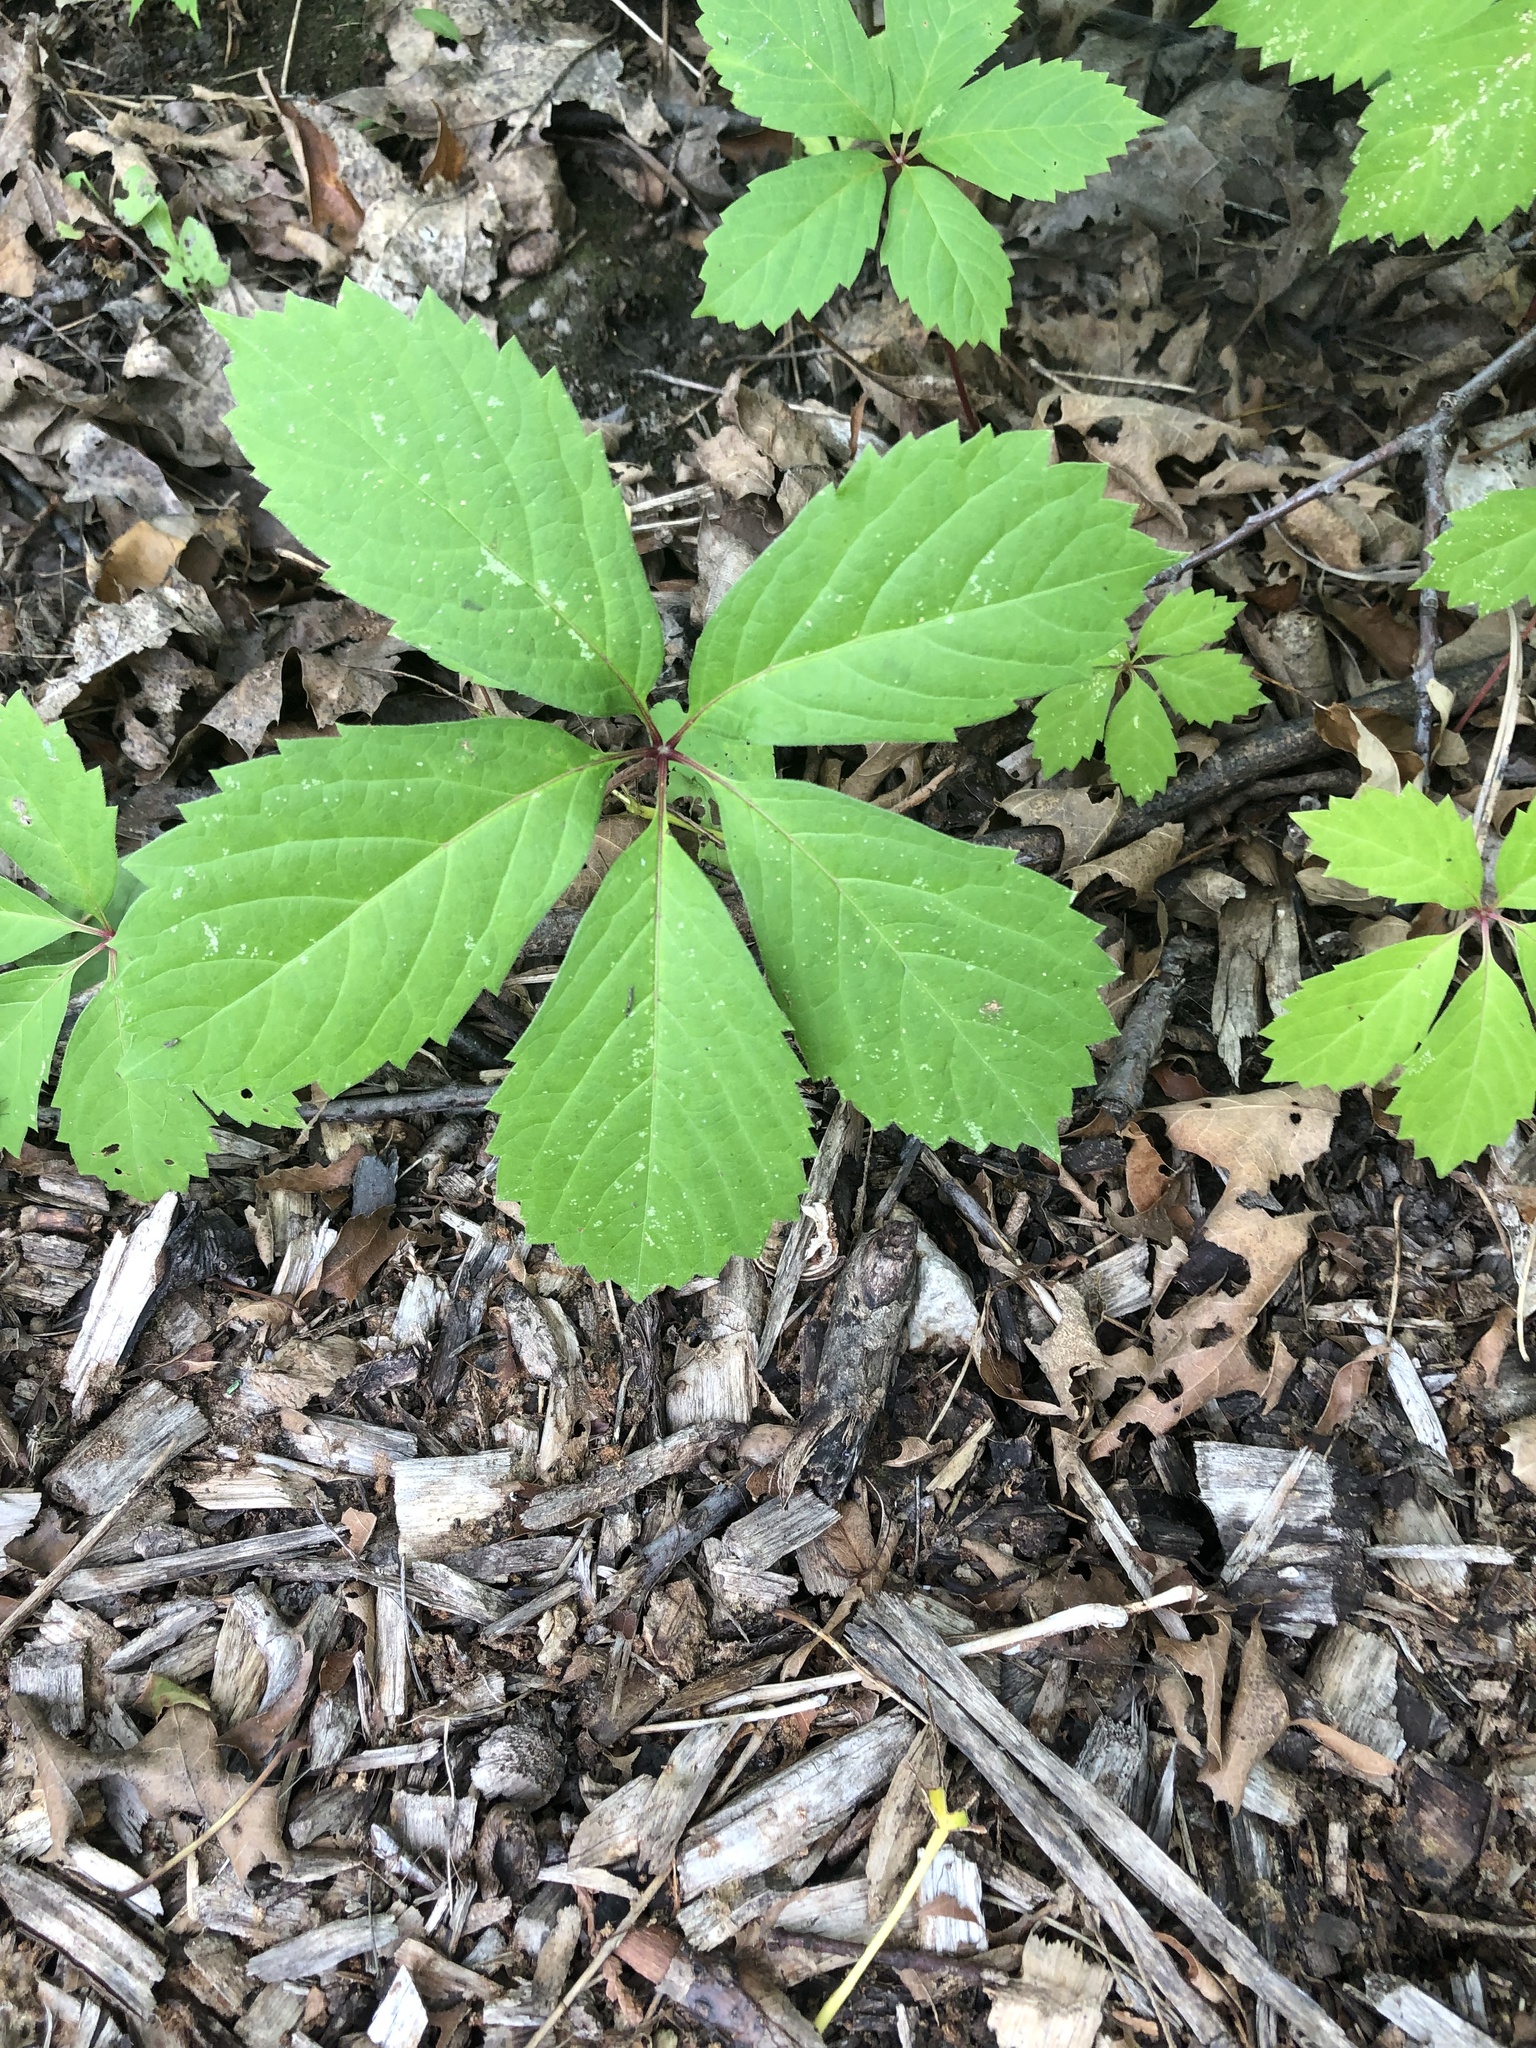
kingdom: Plantae
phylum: Tracheophyta
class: Magnoliopsida
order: Vitales
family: Vitaceae
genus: Parthenocissus
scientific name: Parthenocissus quinquefolia
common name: Virginia-creeper
